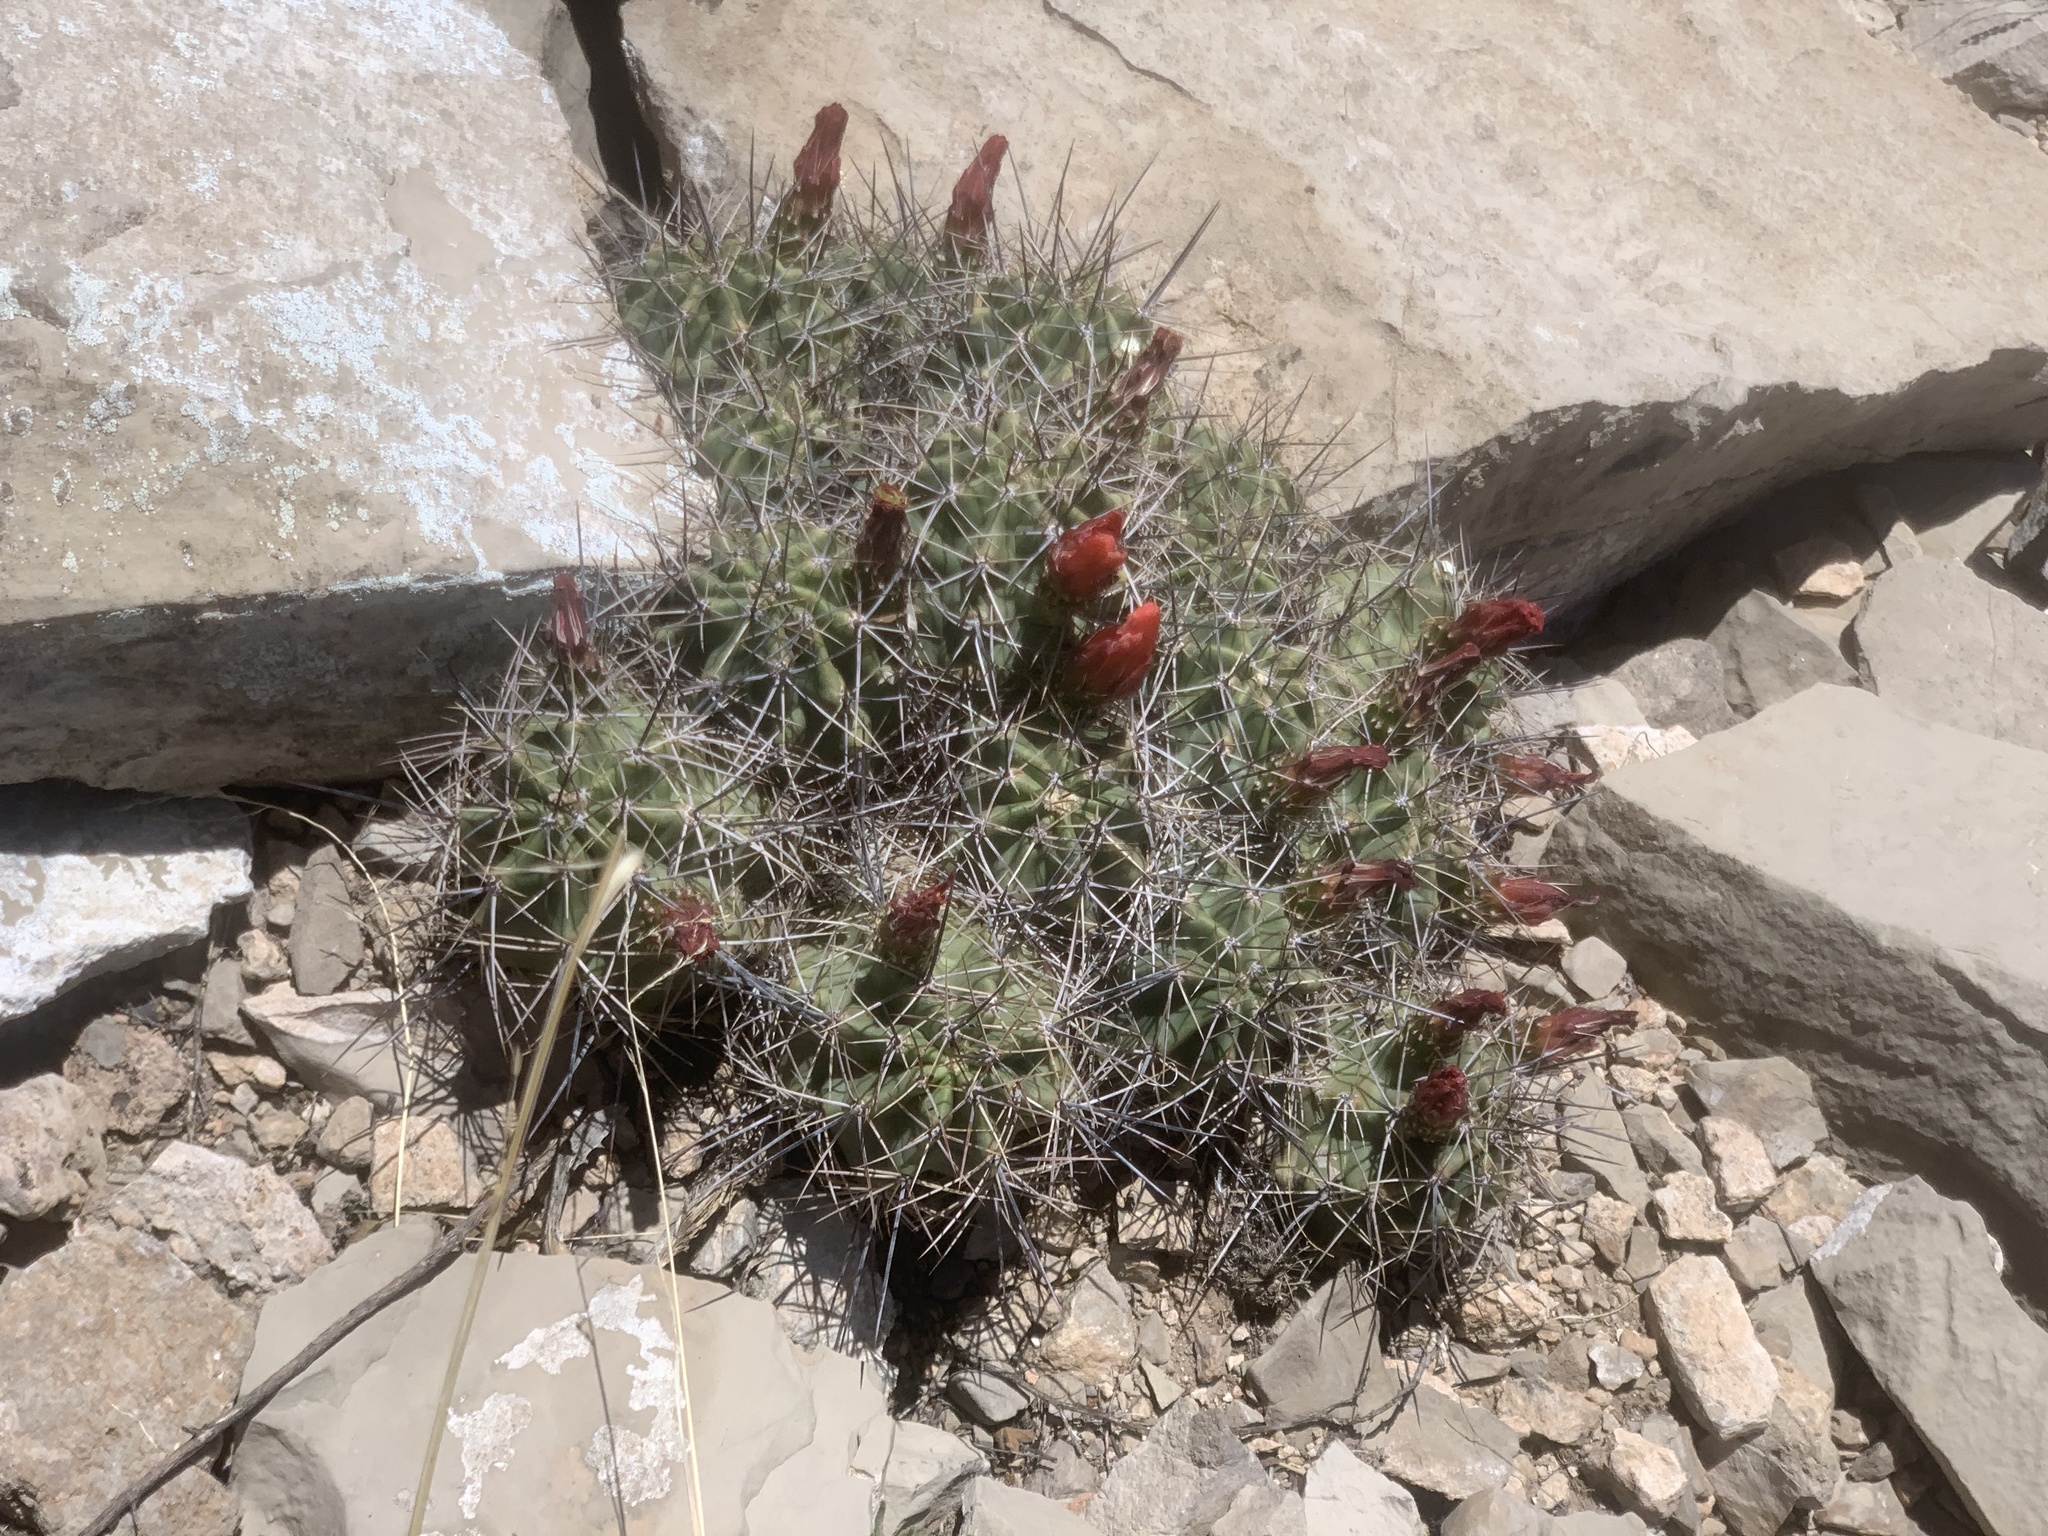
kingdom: Plantae
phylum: Tracheophyta
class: Magnoliopsida
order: Caryophyllales
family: Cactaceae
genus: Echinocereus
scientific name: Echinocereus coccineus
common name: Scarlet hedgehog cactus
